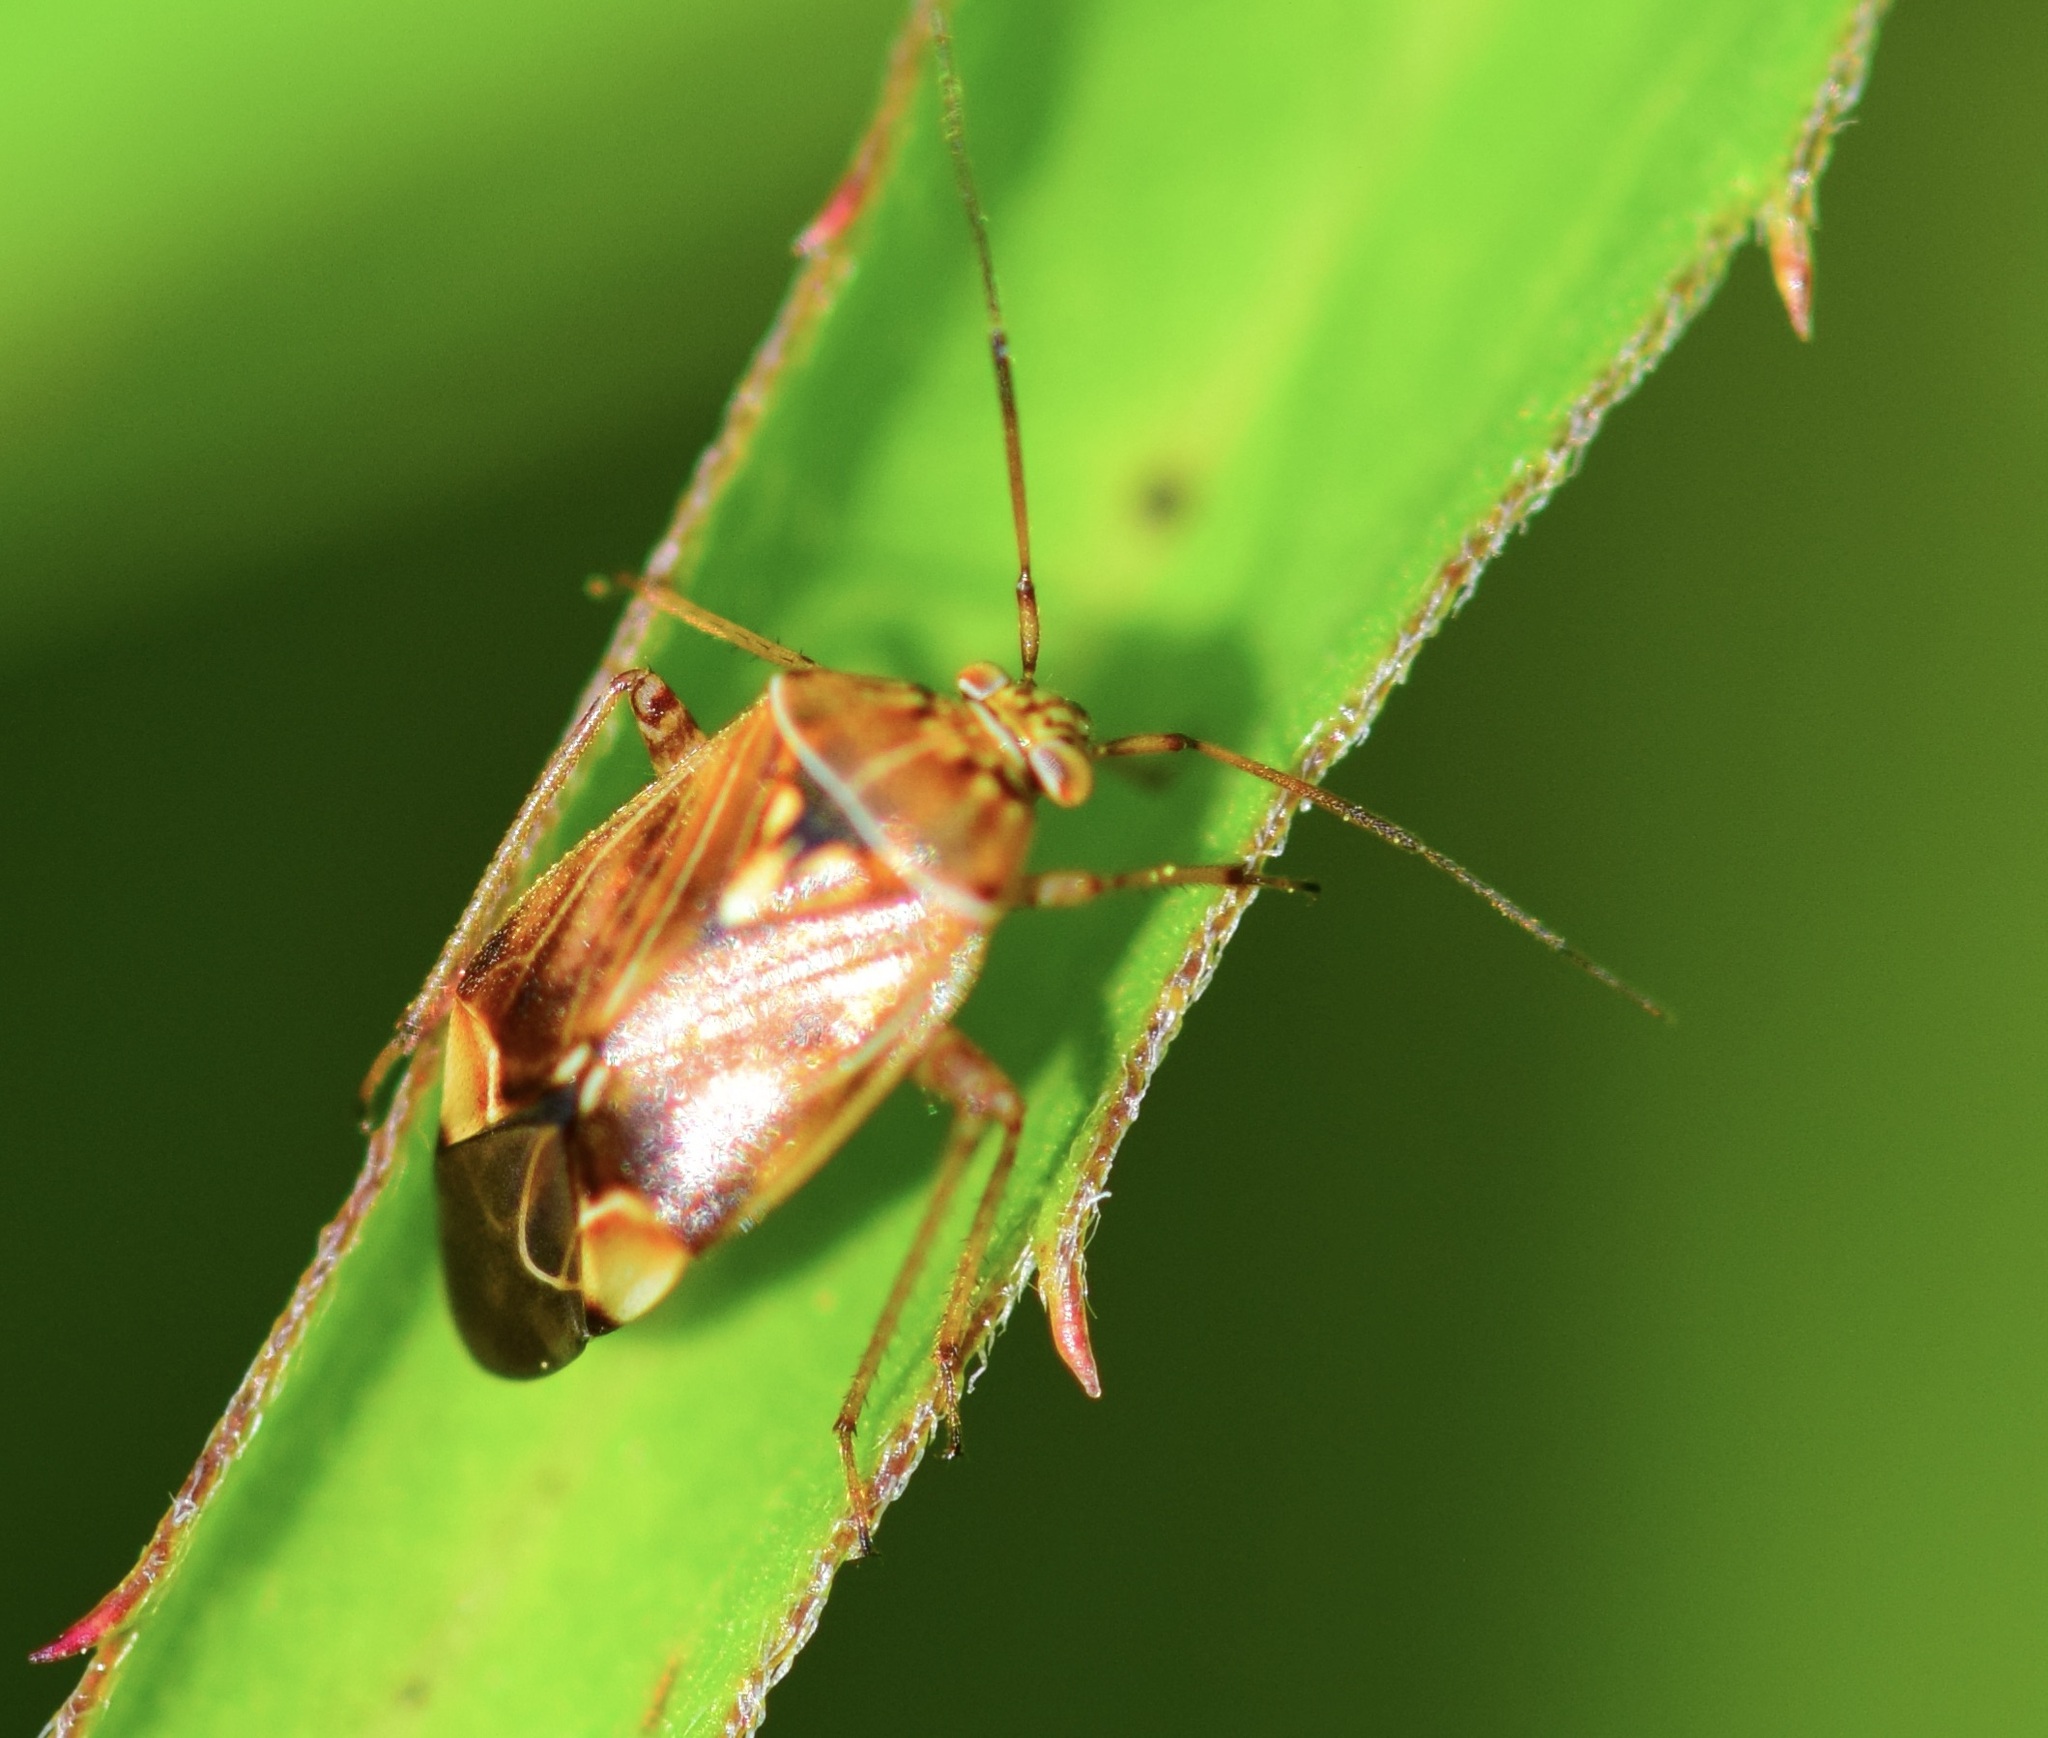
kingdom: Animalia
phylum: Arthropoda
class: Insecta
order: Hemiptera
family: Miridae
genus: Lygus
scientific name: Lygus lineolaris
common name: North american tarnished plant bug
